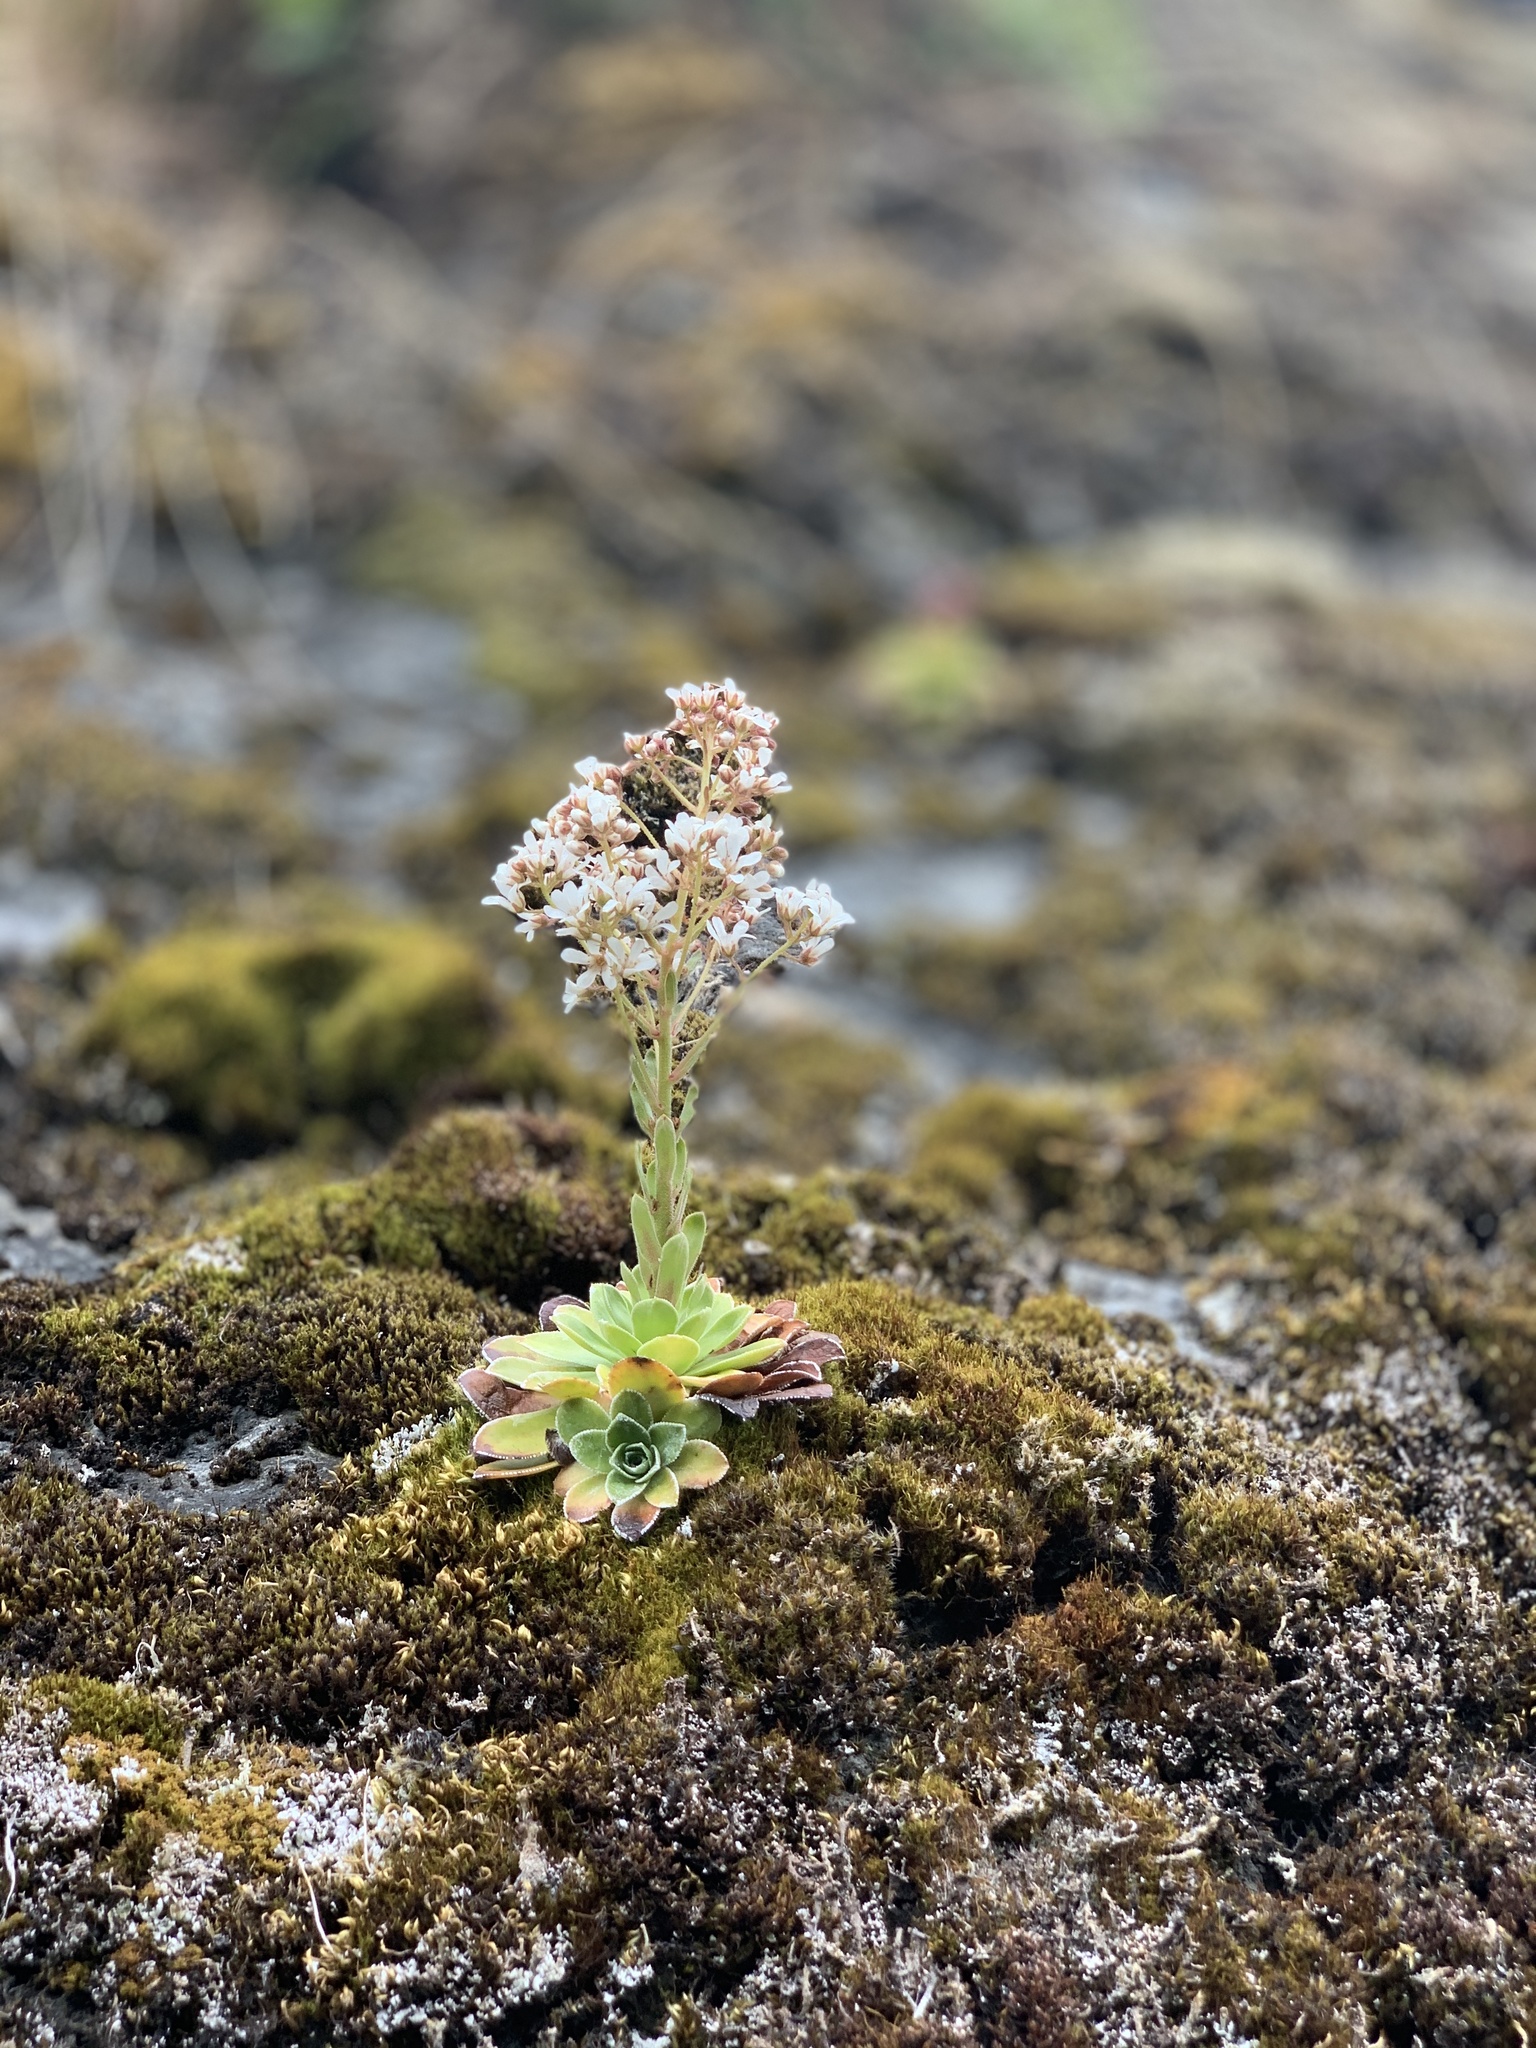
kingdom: Plantae
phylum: Tracheophyta
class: Magnoliopsida
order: Saxifragales
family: Saxifragaceae
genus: Saxifraga
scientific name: Saxifraga cotyledon
